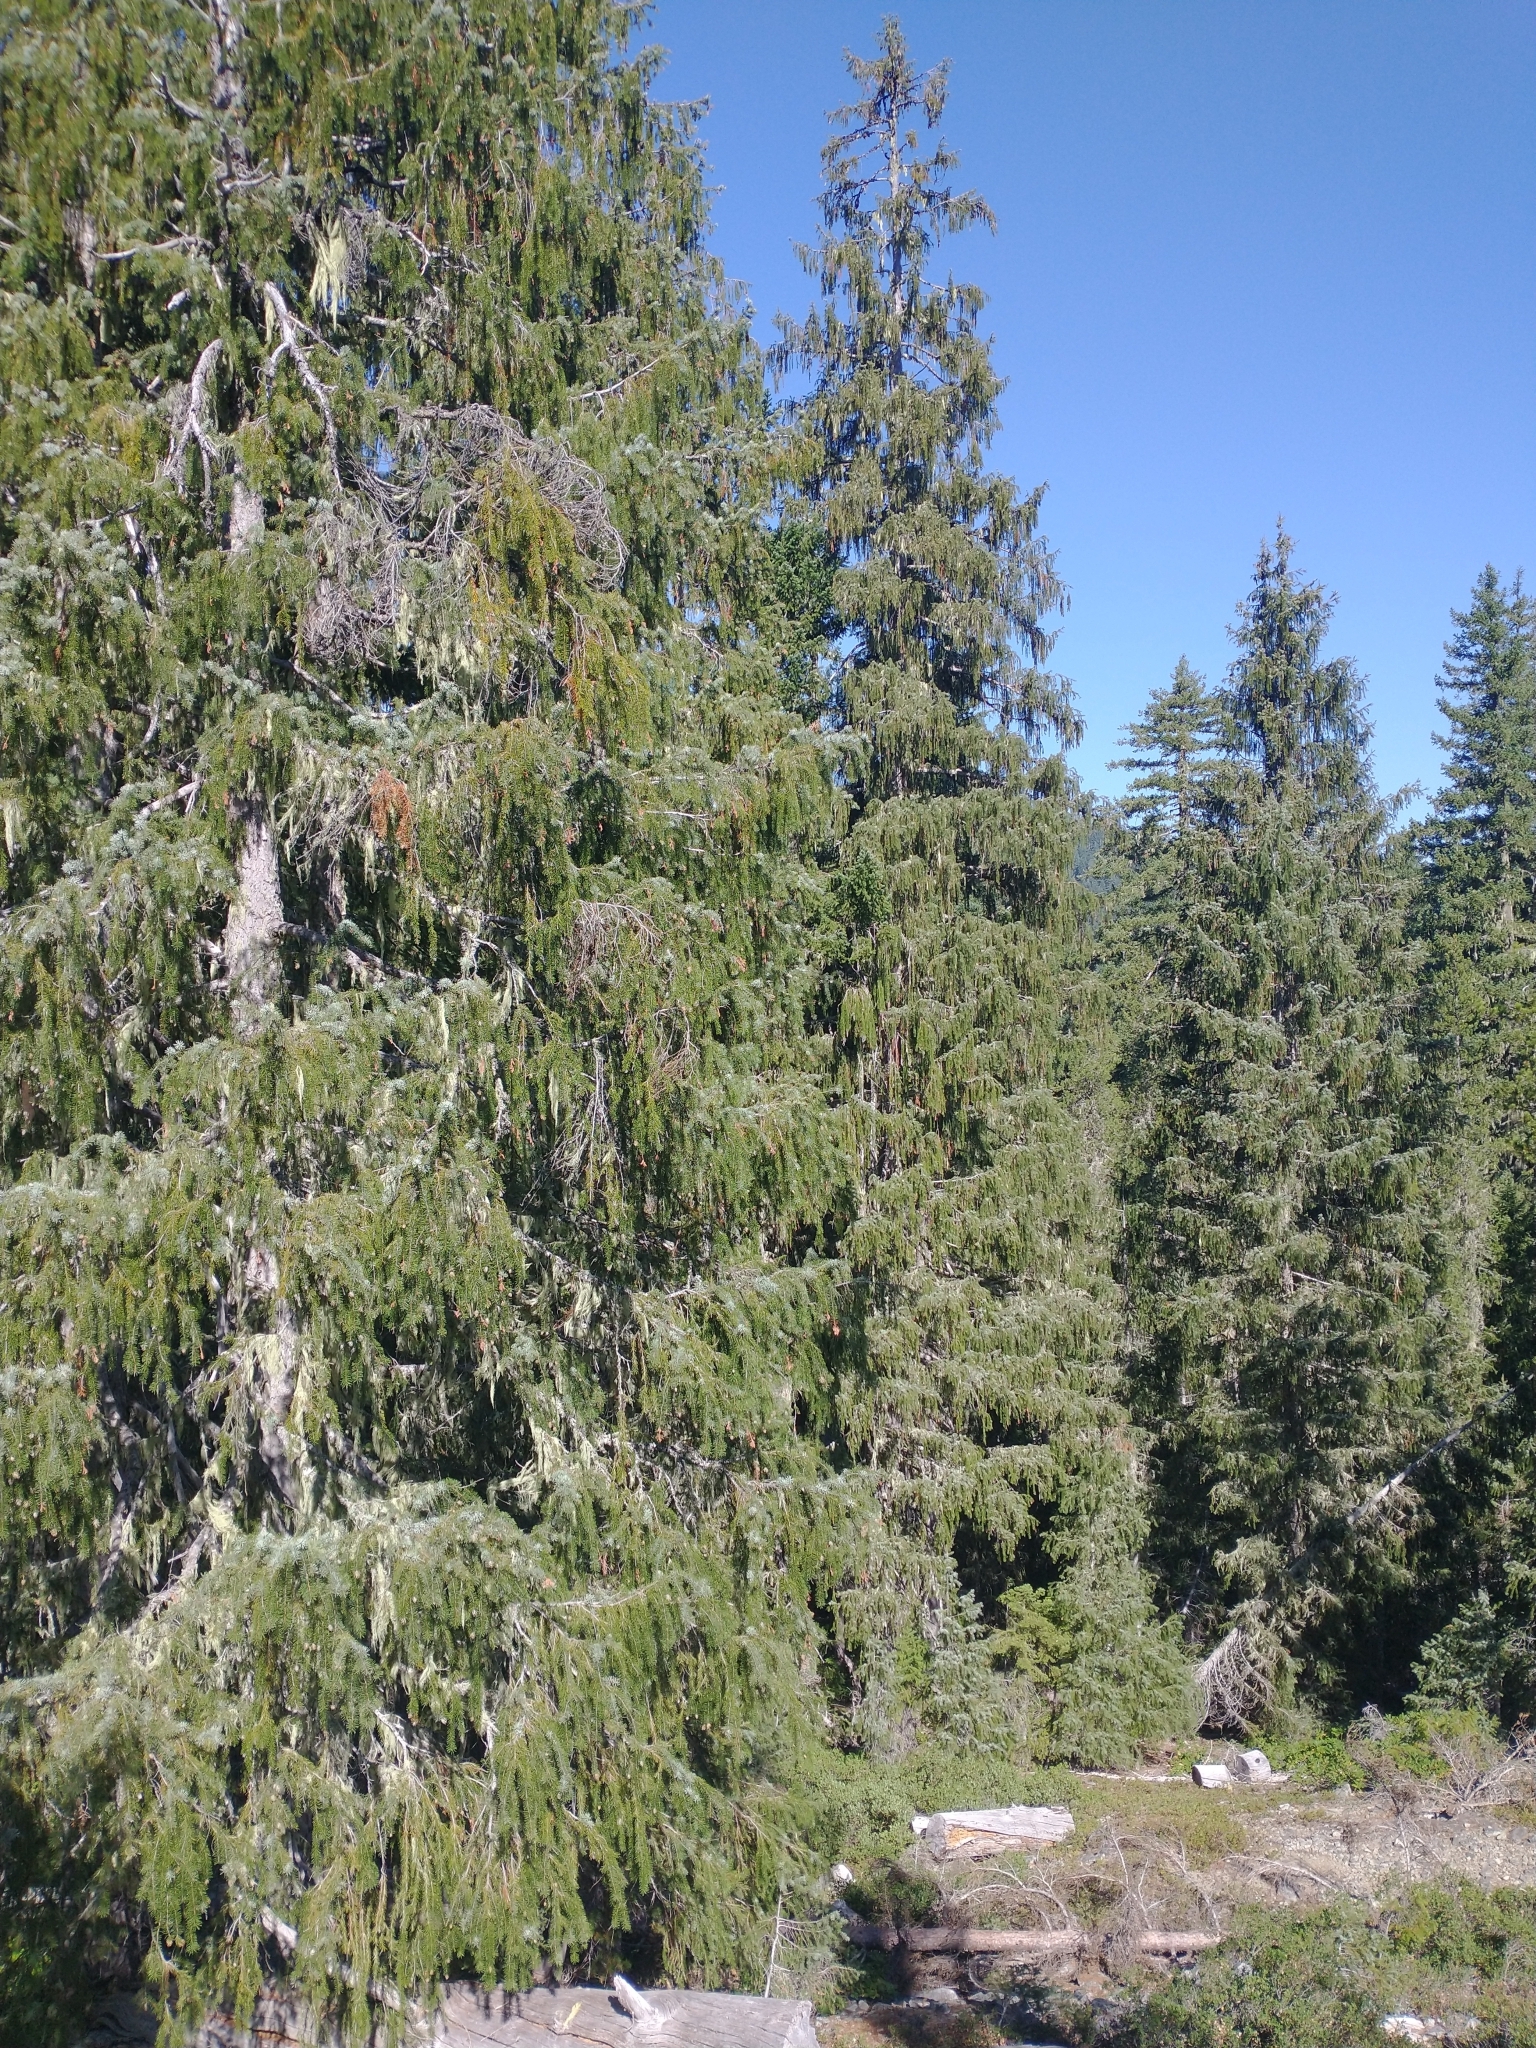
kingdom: Plantae
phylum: Tracheophyta
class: Pinopsida
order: Pinales
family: Pinaceae
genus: Picea
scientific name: Picea breweriana
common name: Brewer's spruce
